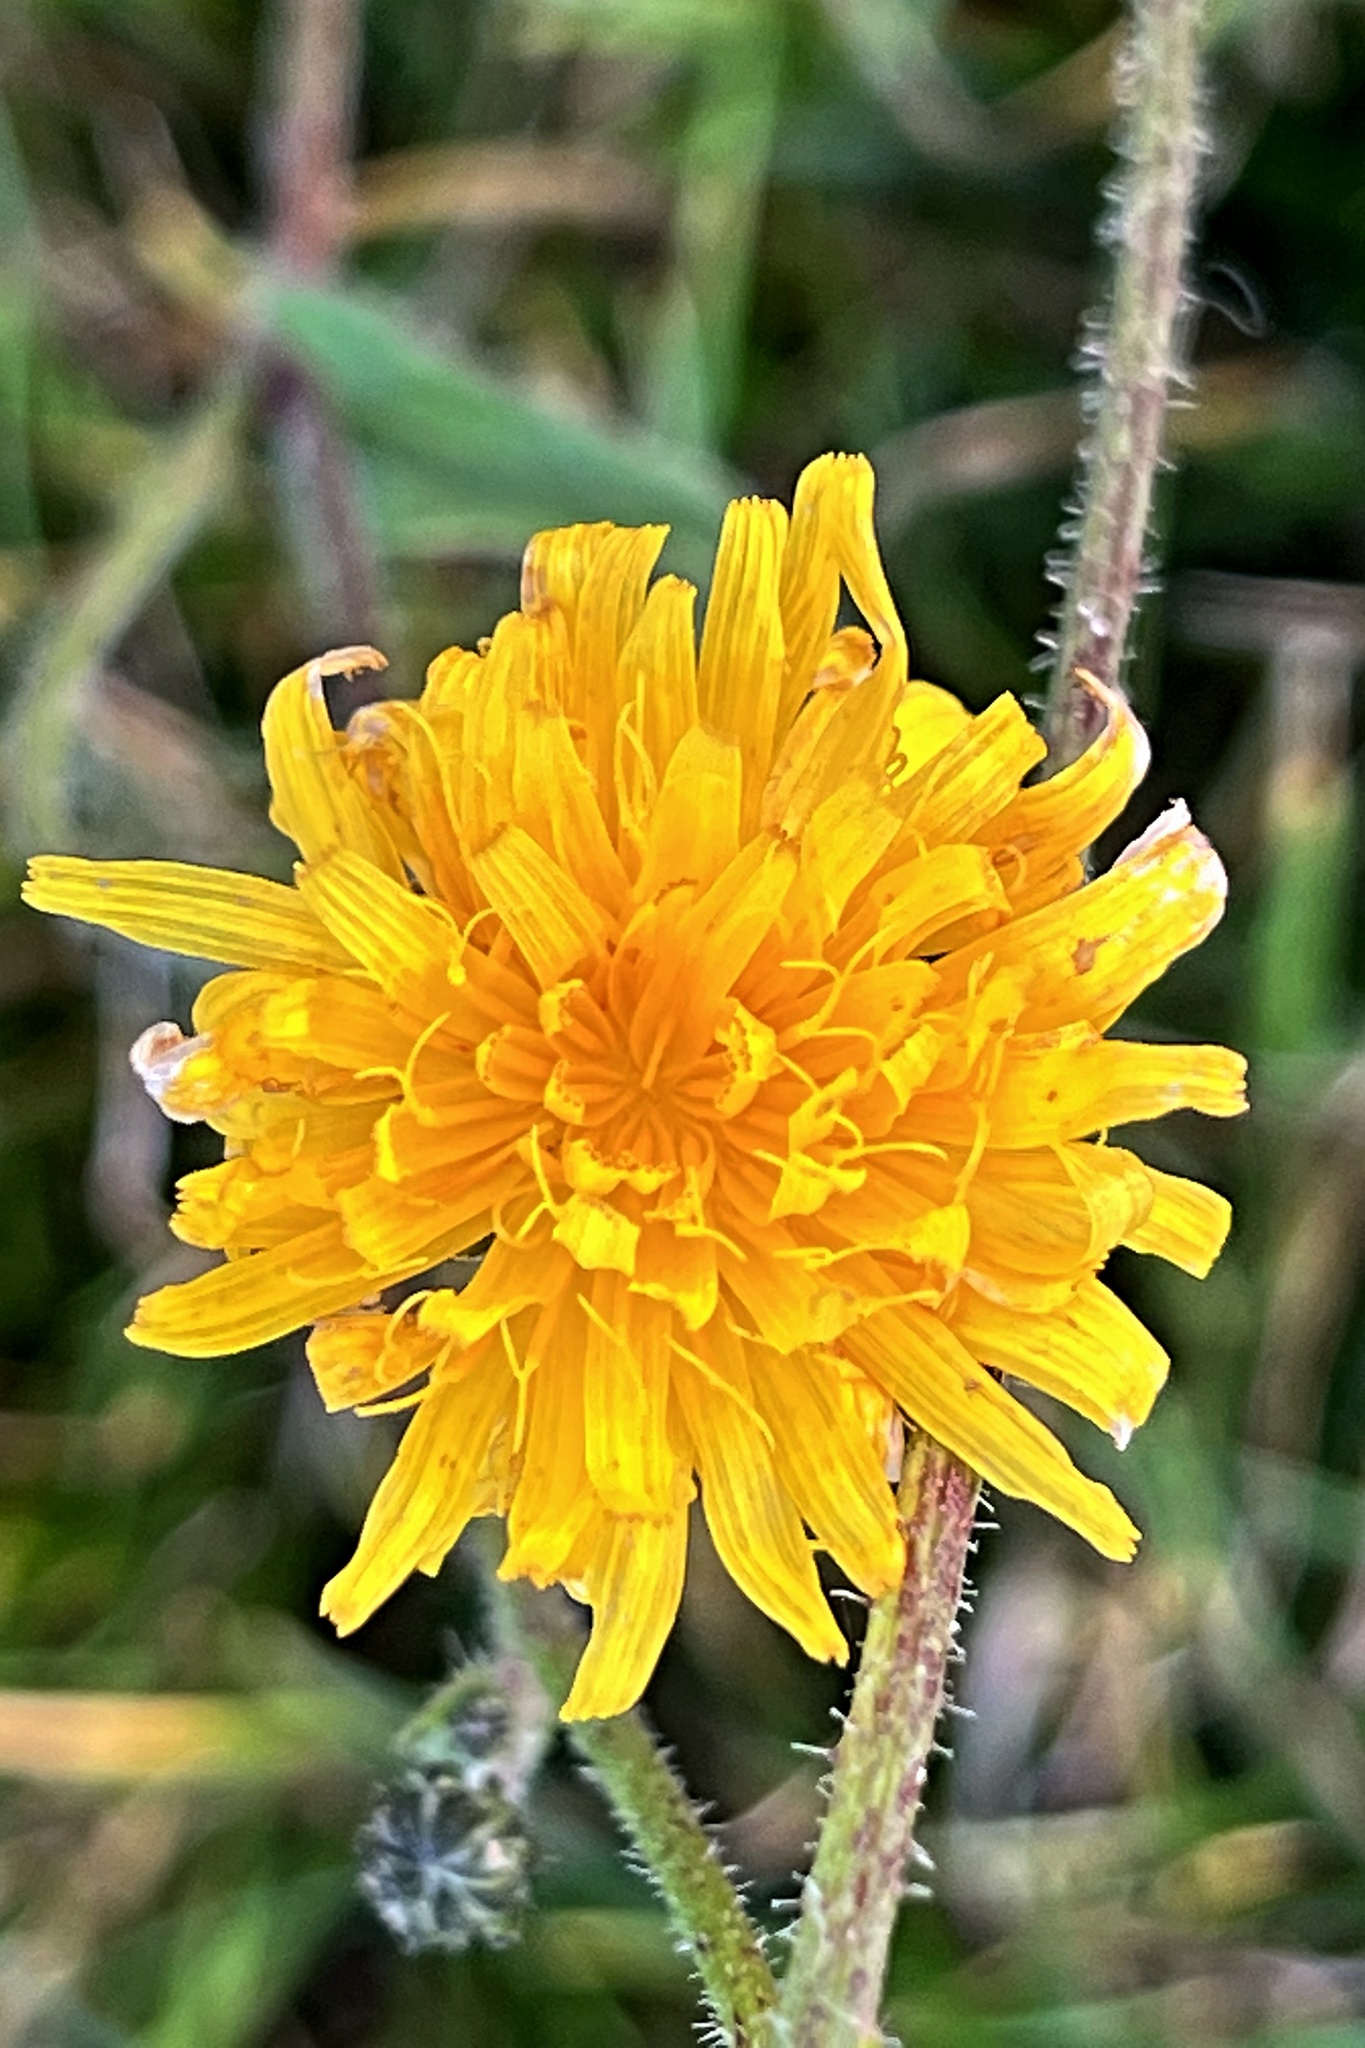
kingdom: Plantae
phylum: Tracheophyta
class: Magnoliopsida
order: Asterales
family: Asteraceae
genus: Picris
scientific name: Picris hieracioides
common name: Hawkweed oxtongue
